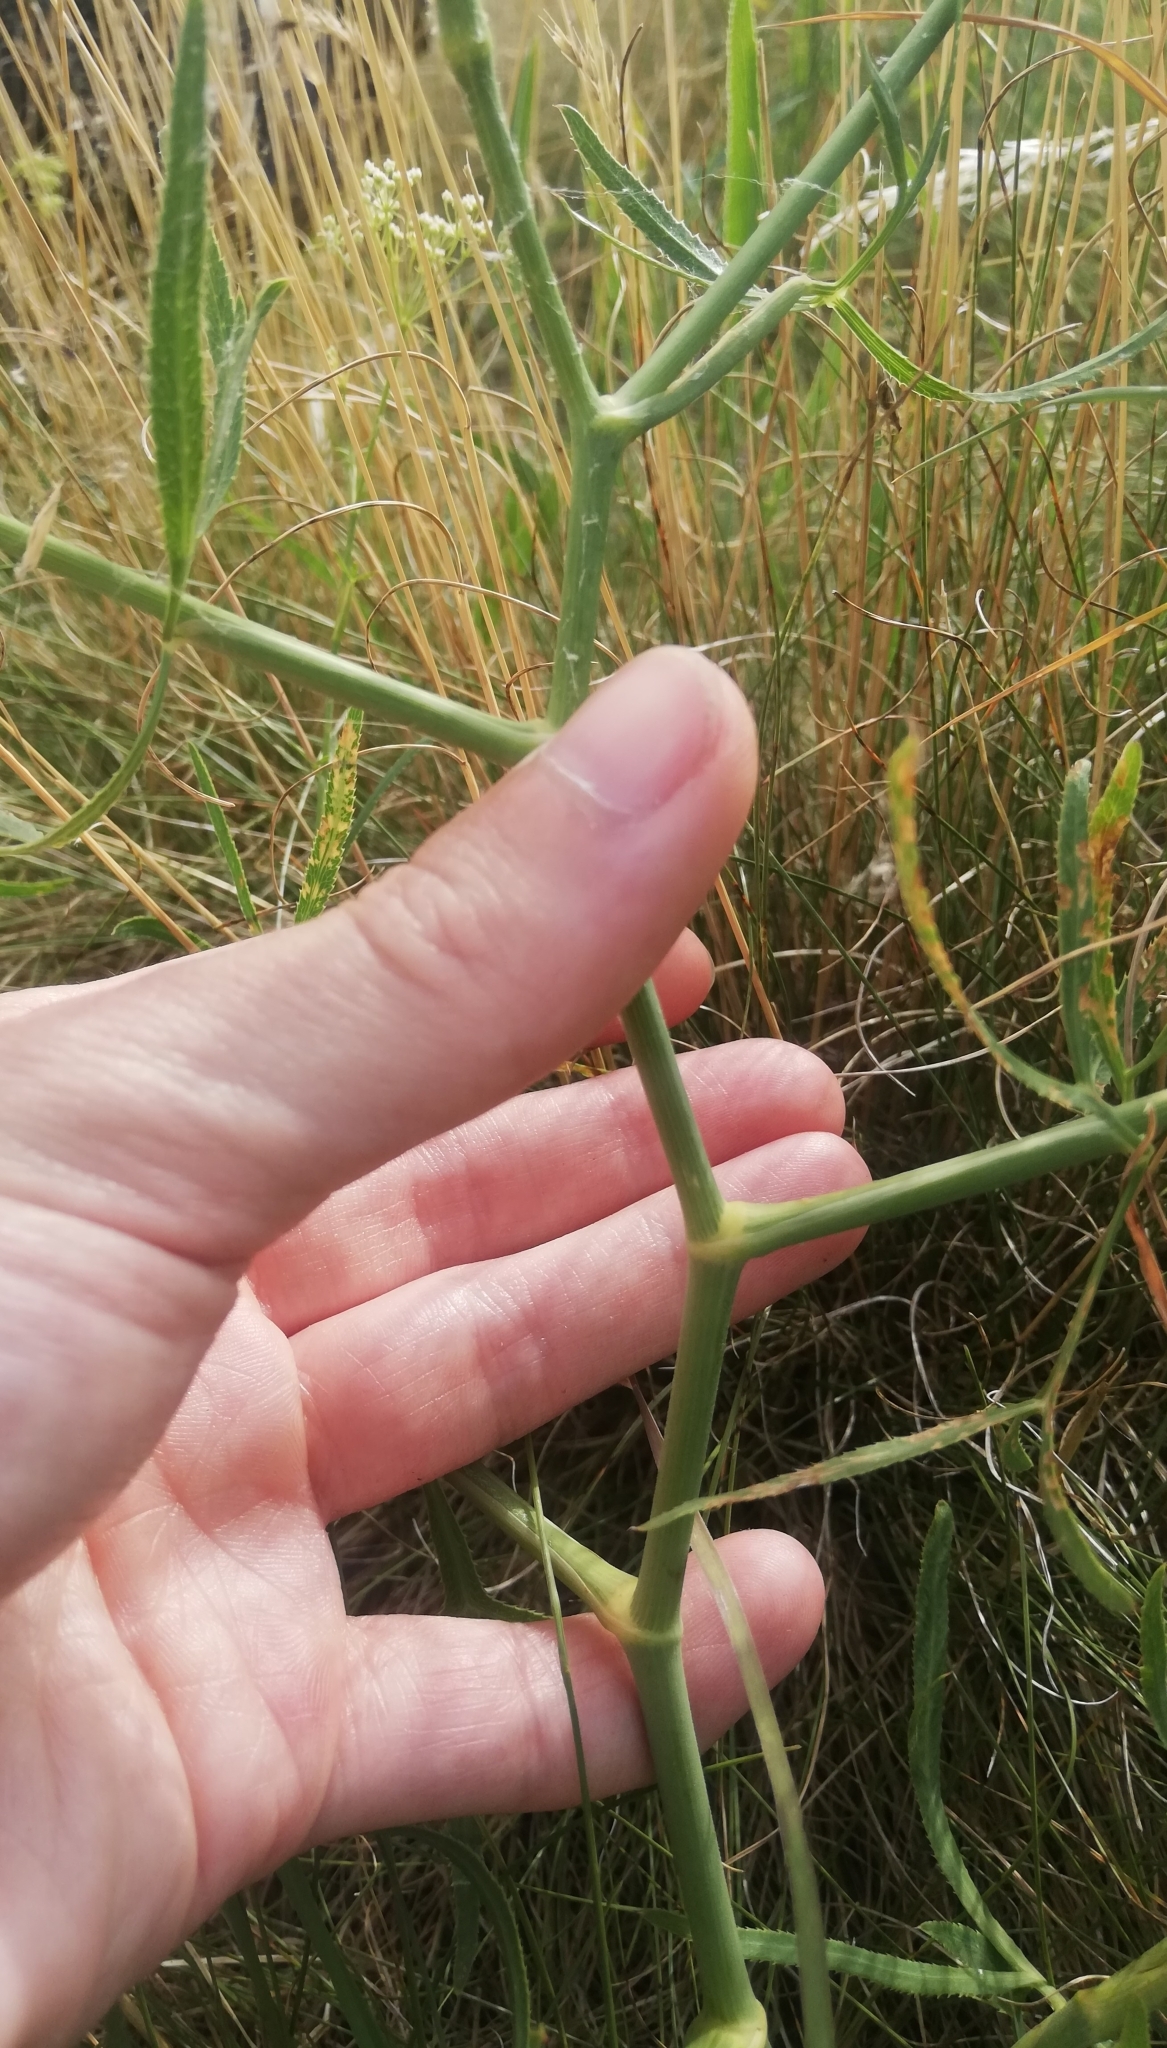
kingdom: Plantae
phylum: Tracheophyta
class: Magnoliopsida
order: Apiales
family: Apiaceae
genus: Falcaria
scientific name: Falcaria vulgaris
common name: Longleaf
